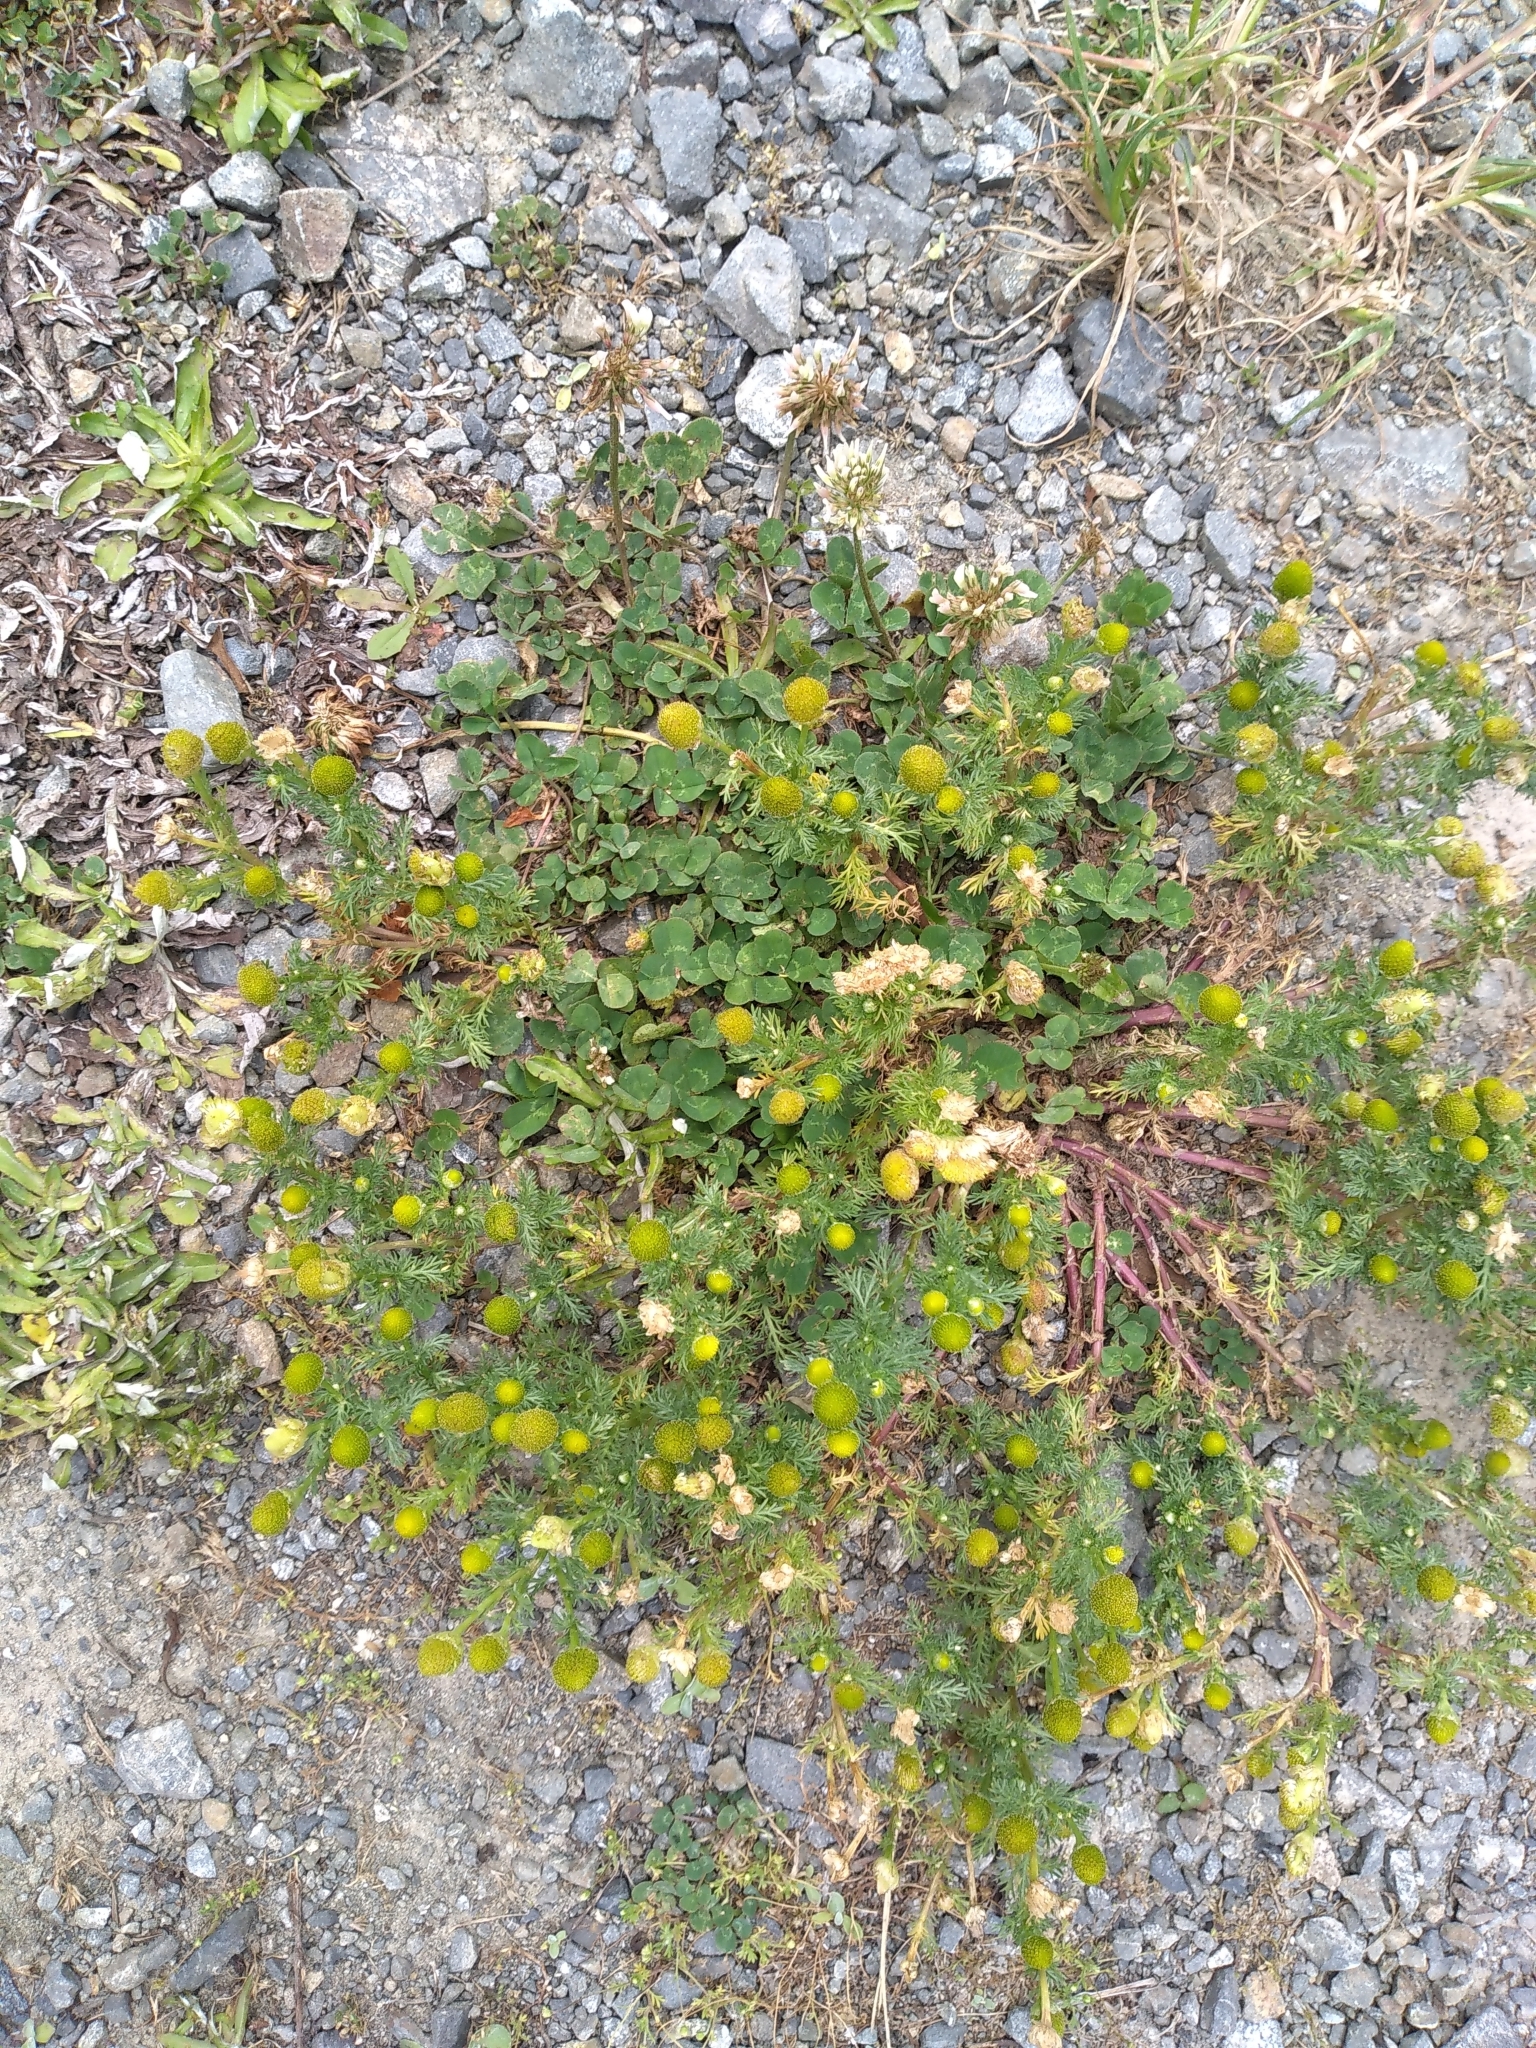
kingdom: Plantae
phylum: Tracheophyta
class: Magnoliopsida
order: Asterales
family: Asteraceae
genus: Matricaria
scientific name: Matricaria discoidea
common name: Disc mayweed
